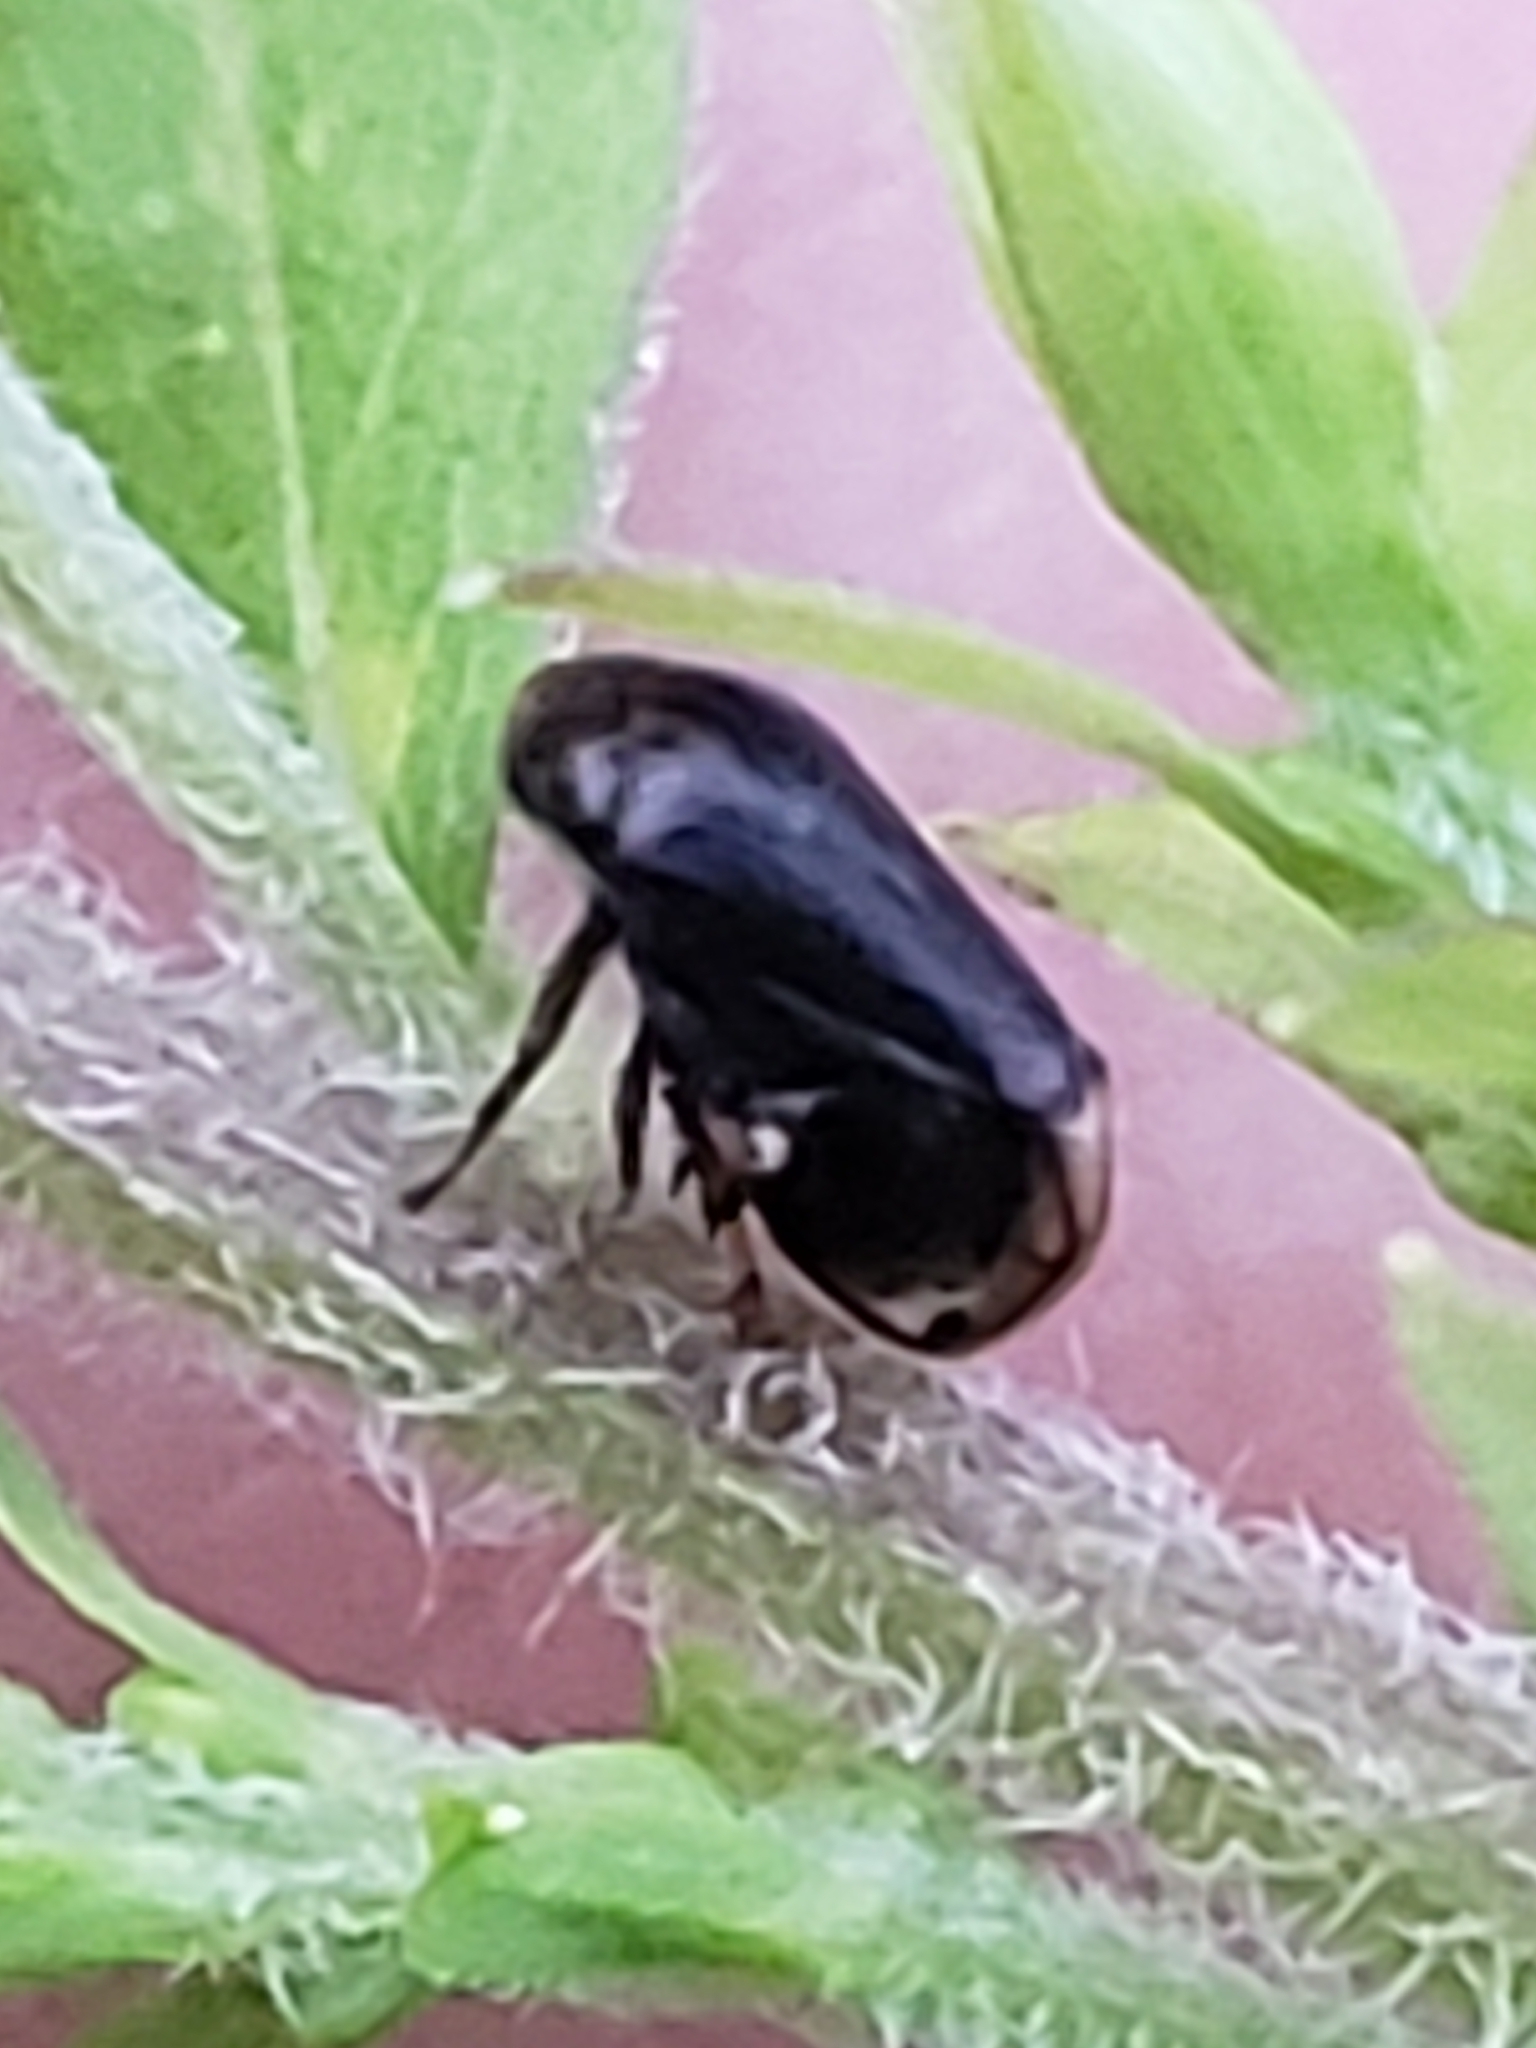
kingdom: Animalia
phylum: Arthropoda
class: Insecta
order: Hemiptera
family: Clastopteridae
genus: Clastoptera
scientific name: Clastoptera xanthocephala
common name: Sunflower spittlebug
